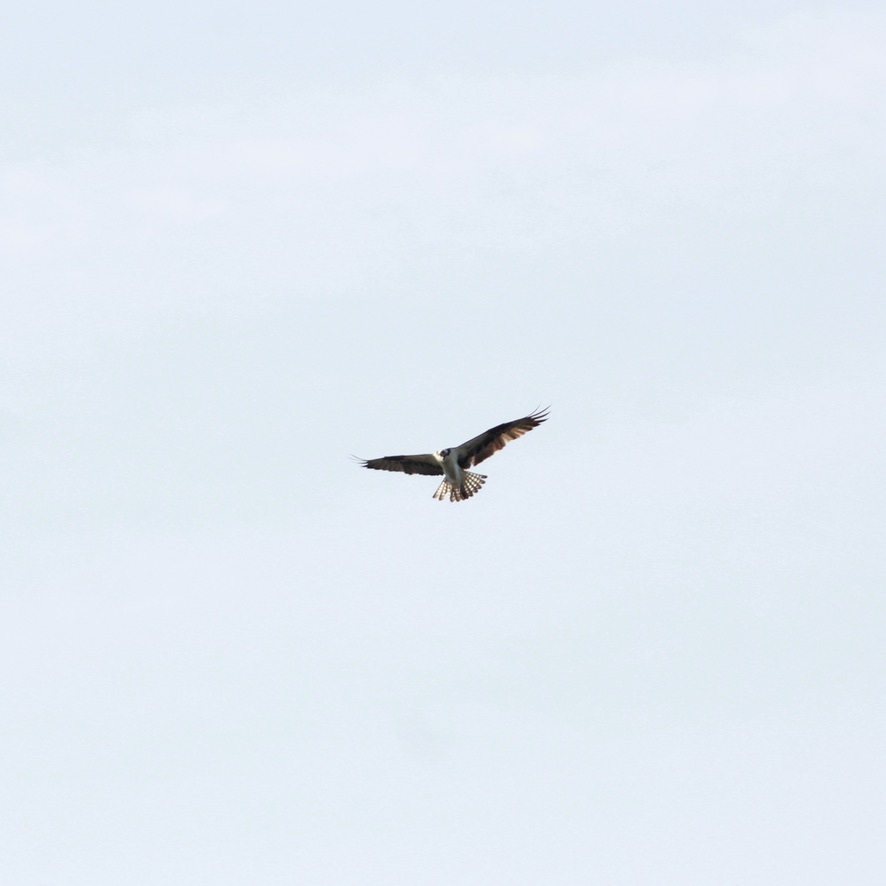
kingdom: Animalia
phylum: Chordata
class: Aves
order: Accipitriformes
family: Pandionidae
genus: Pandion
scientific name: Pandion haliaetus
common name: Osprey
